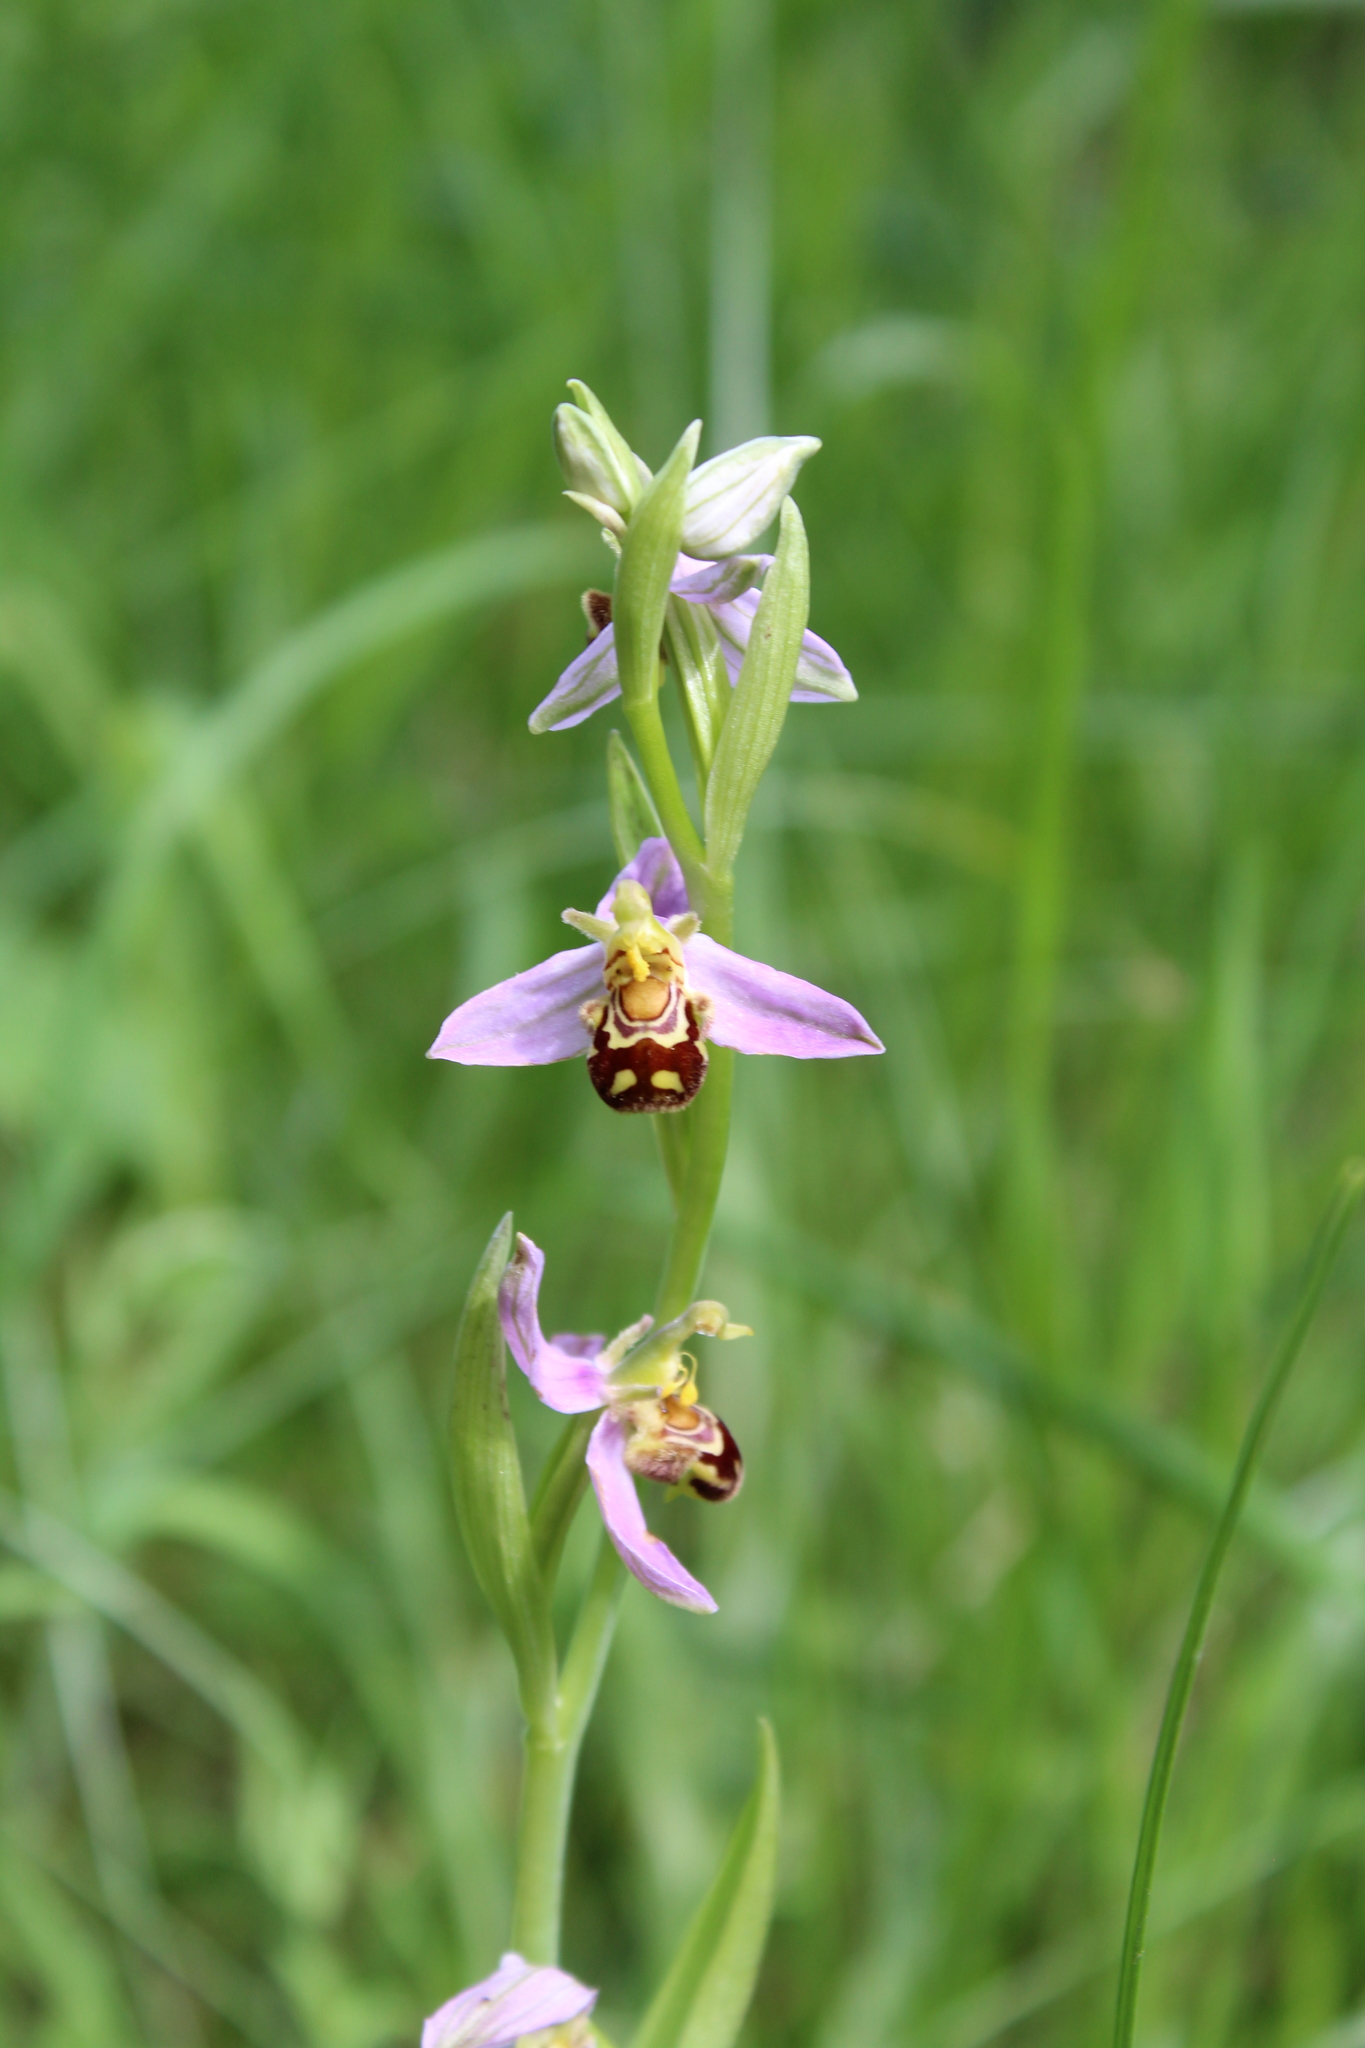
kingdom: Plantae
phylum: Tracheophyta
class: Liliopsida
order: Asparagales
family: Orchidaceae
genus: Ophrys
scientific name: Ophrys apifera
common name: Bee orchid
